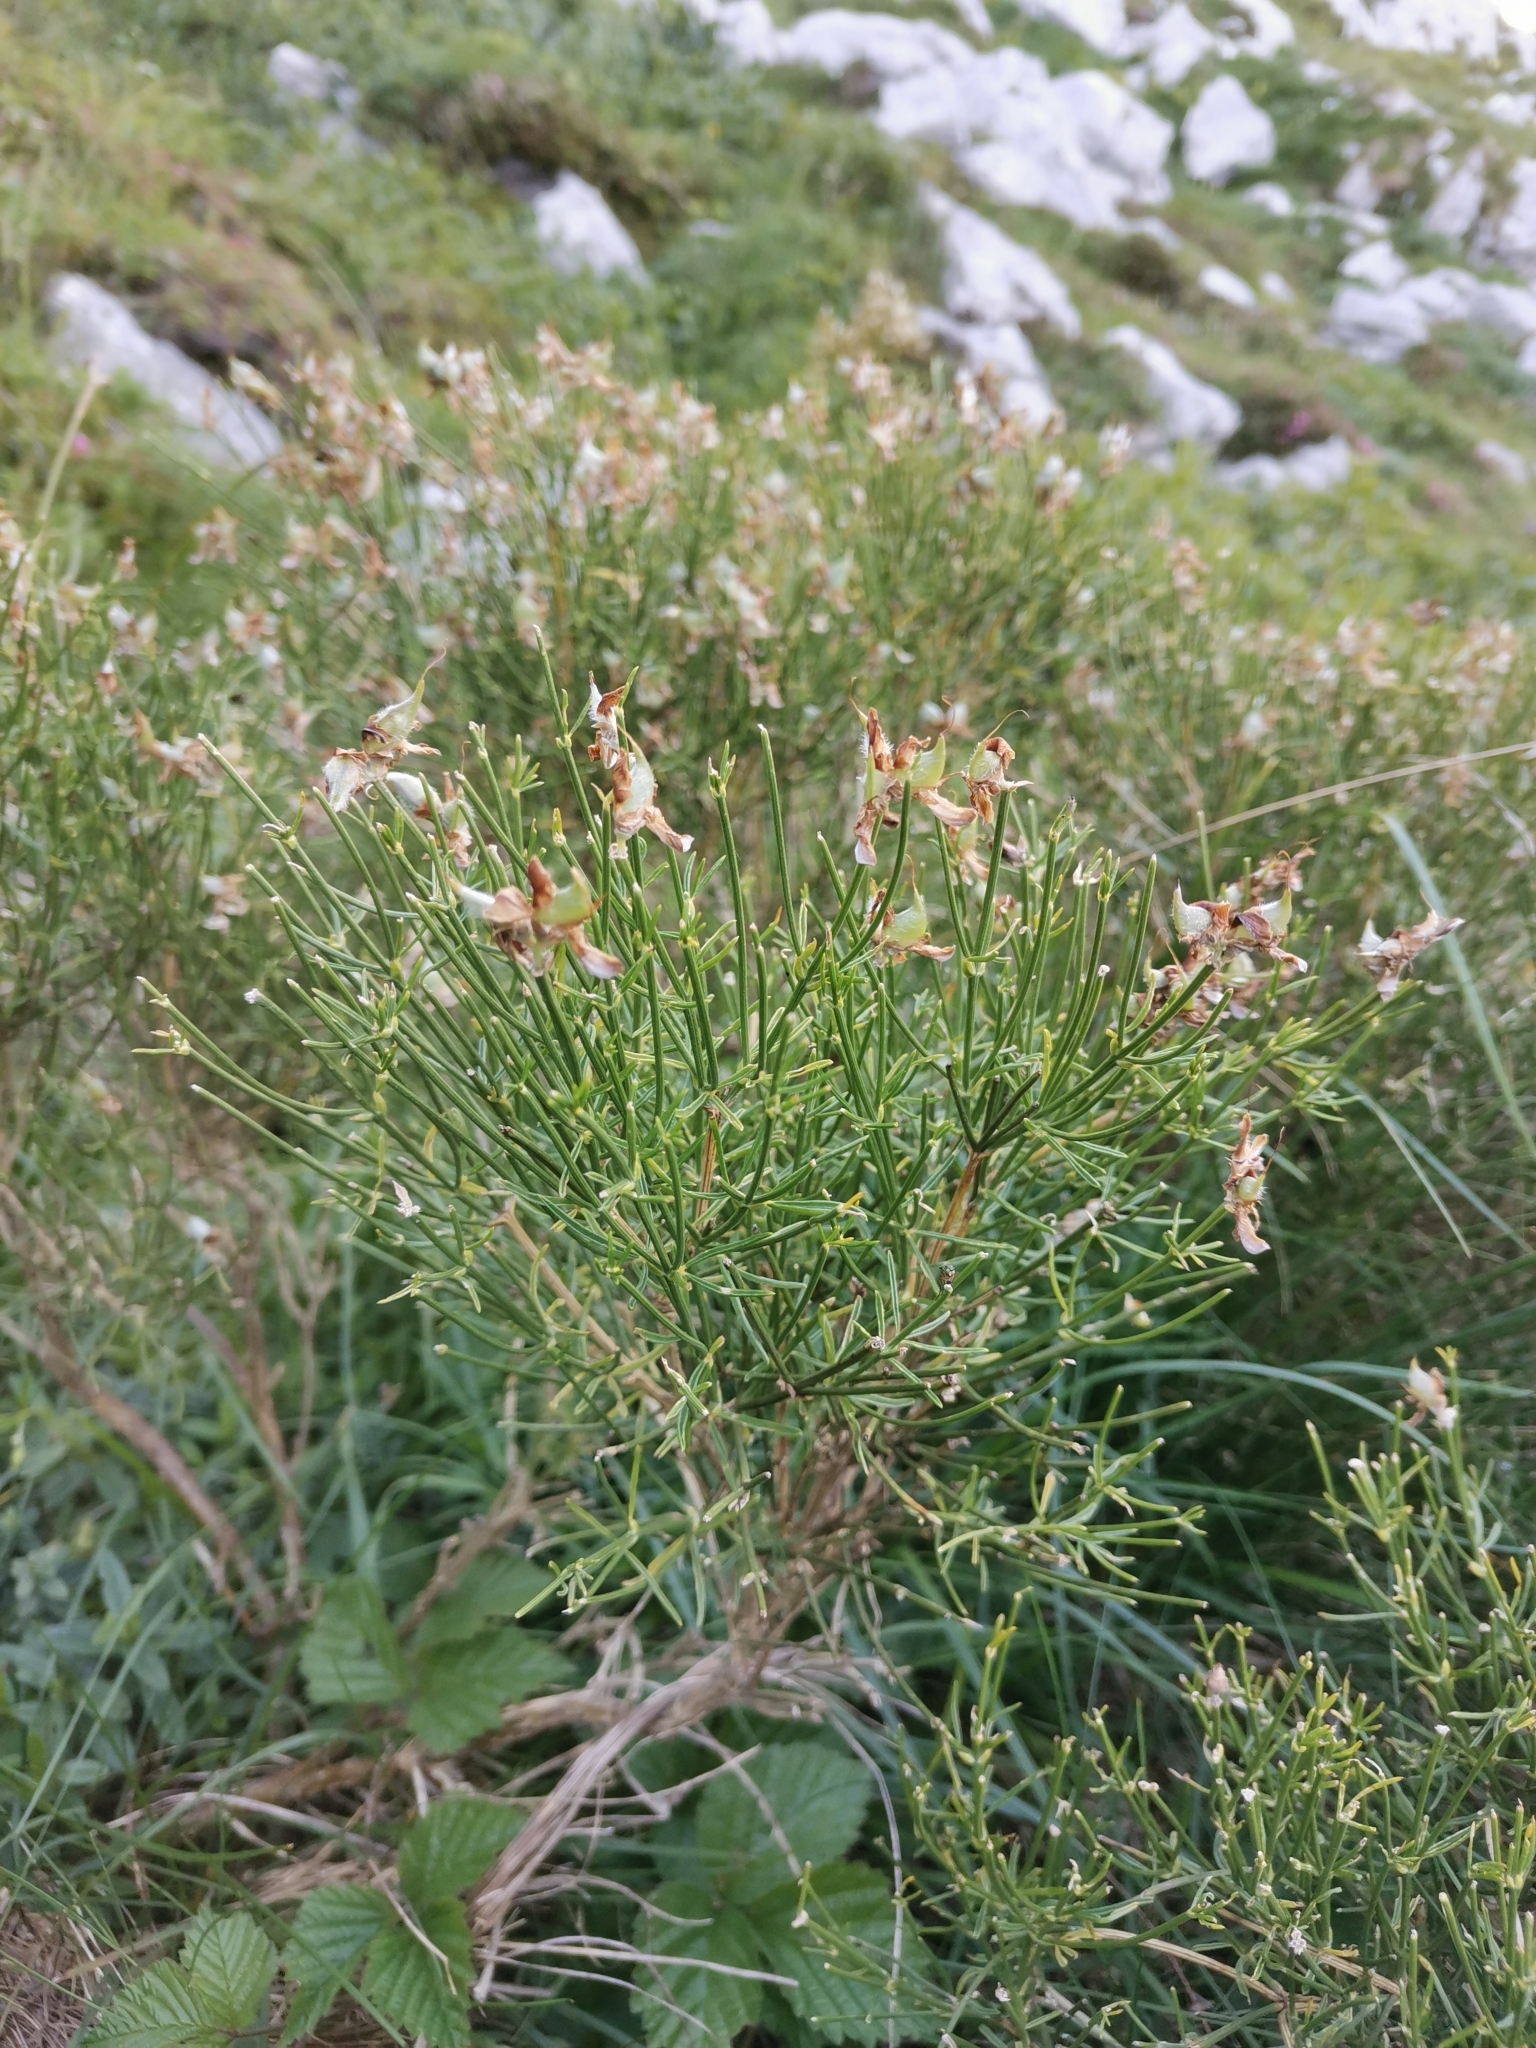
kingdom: Plantae
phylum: Tracheophyta
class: Magnoliopsida
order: Fabales
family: Fabaceae
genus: Genista
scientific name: Genista radiata
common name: Southern greenweed
